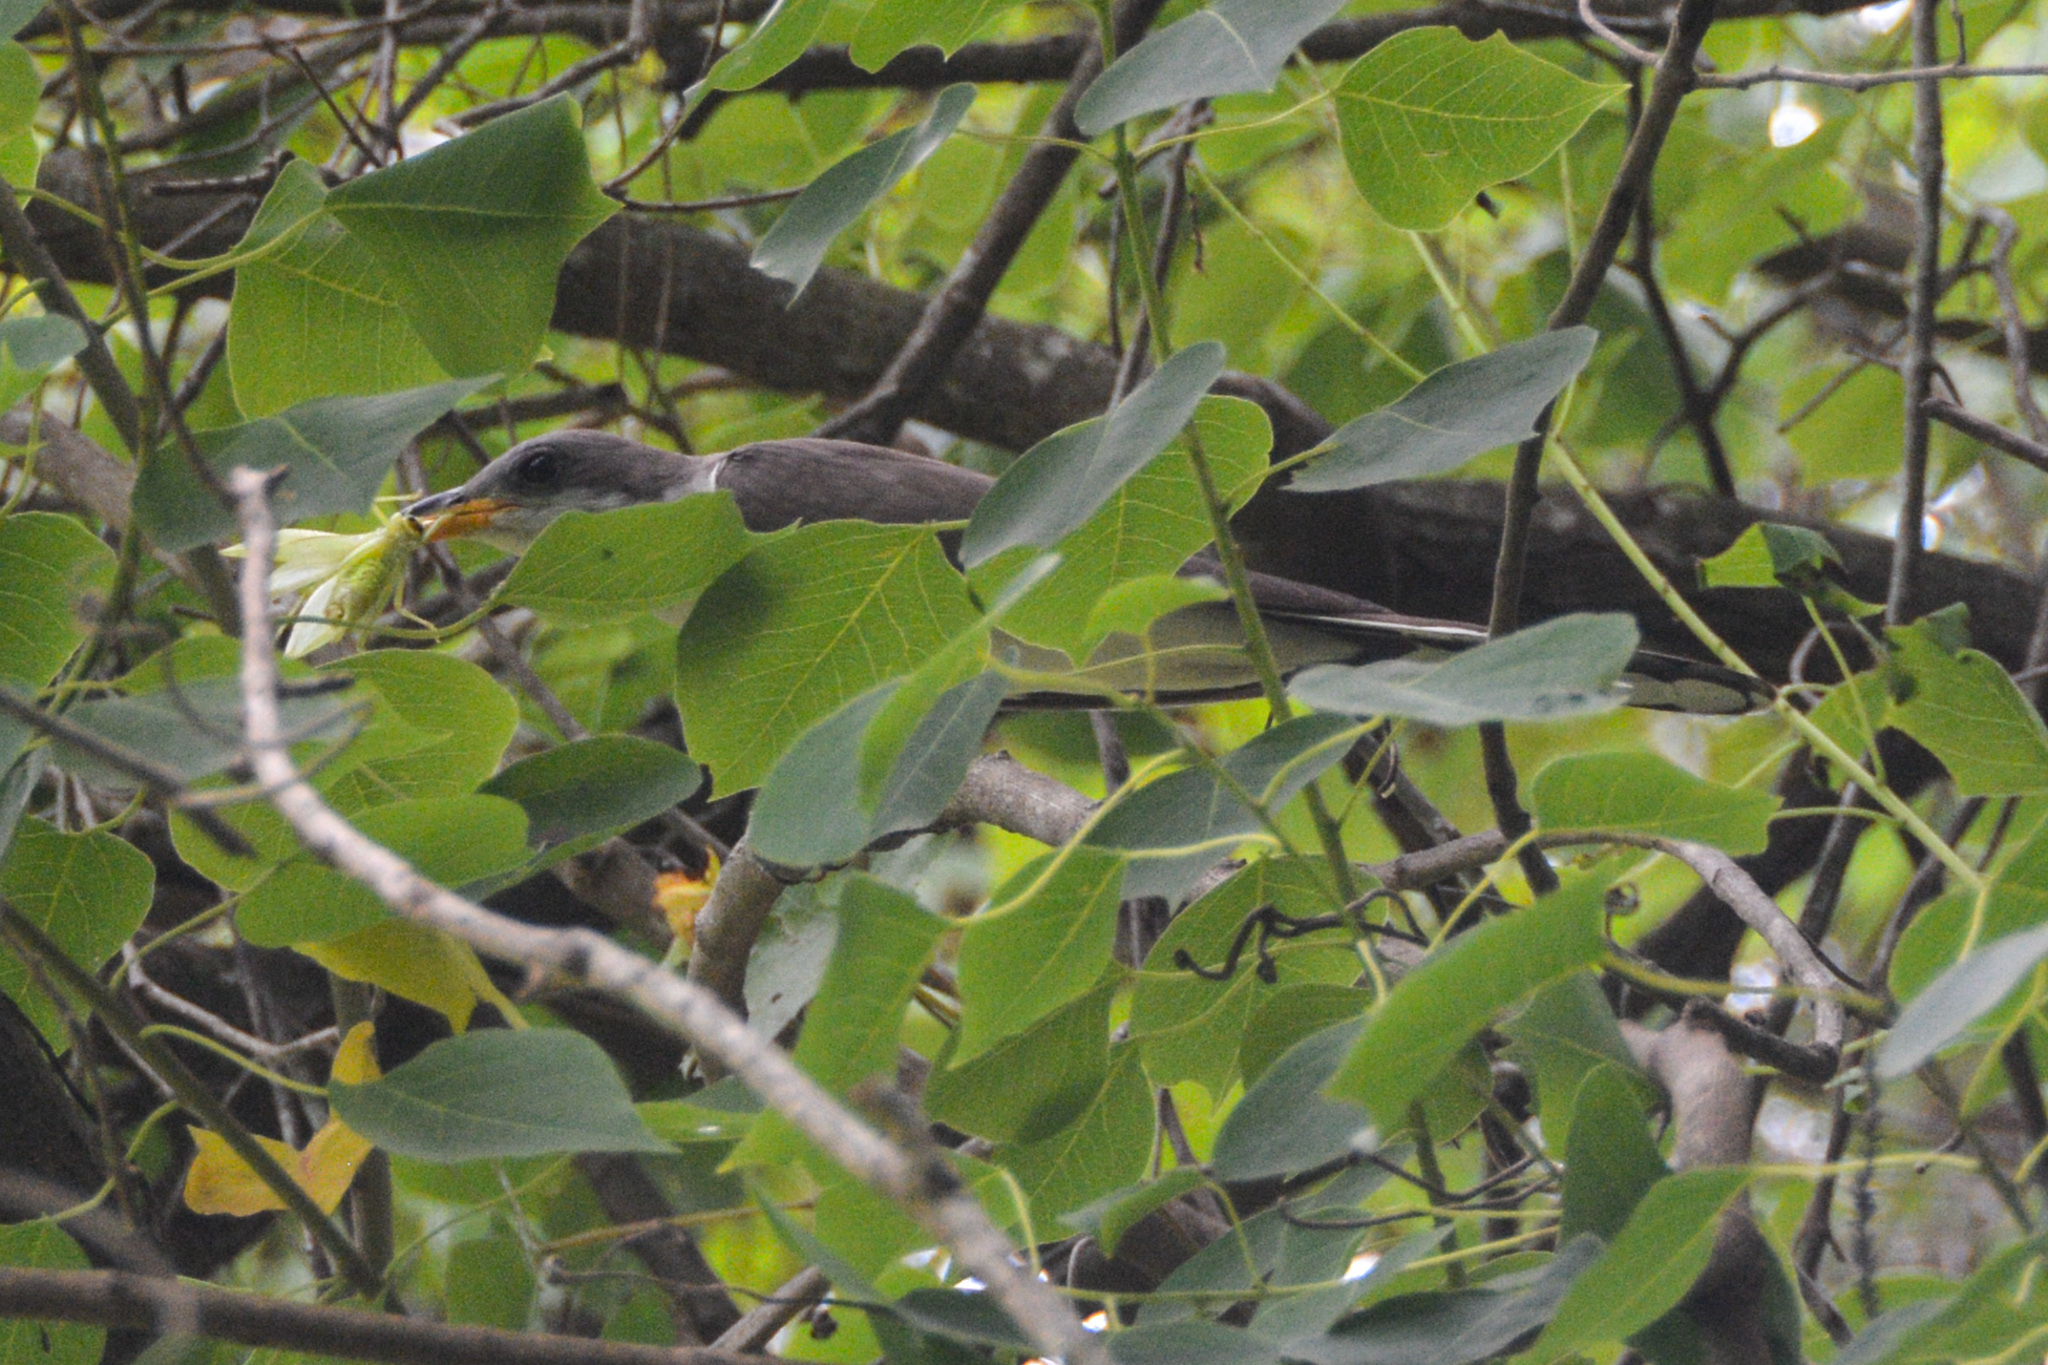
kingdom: Animalia
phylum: Chordata
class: Aves
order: Cuculiformes
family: Cuculidae
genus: Coccyzus
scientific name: Coccyzus americanus
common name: Yellow-billed cuckoo
